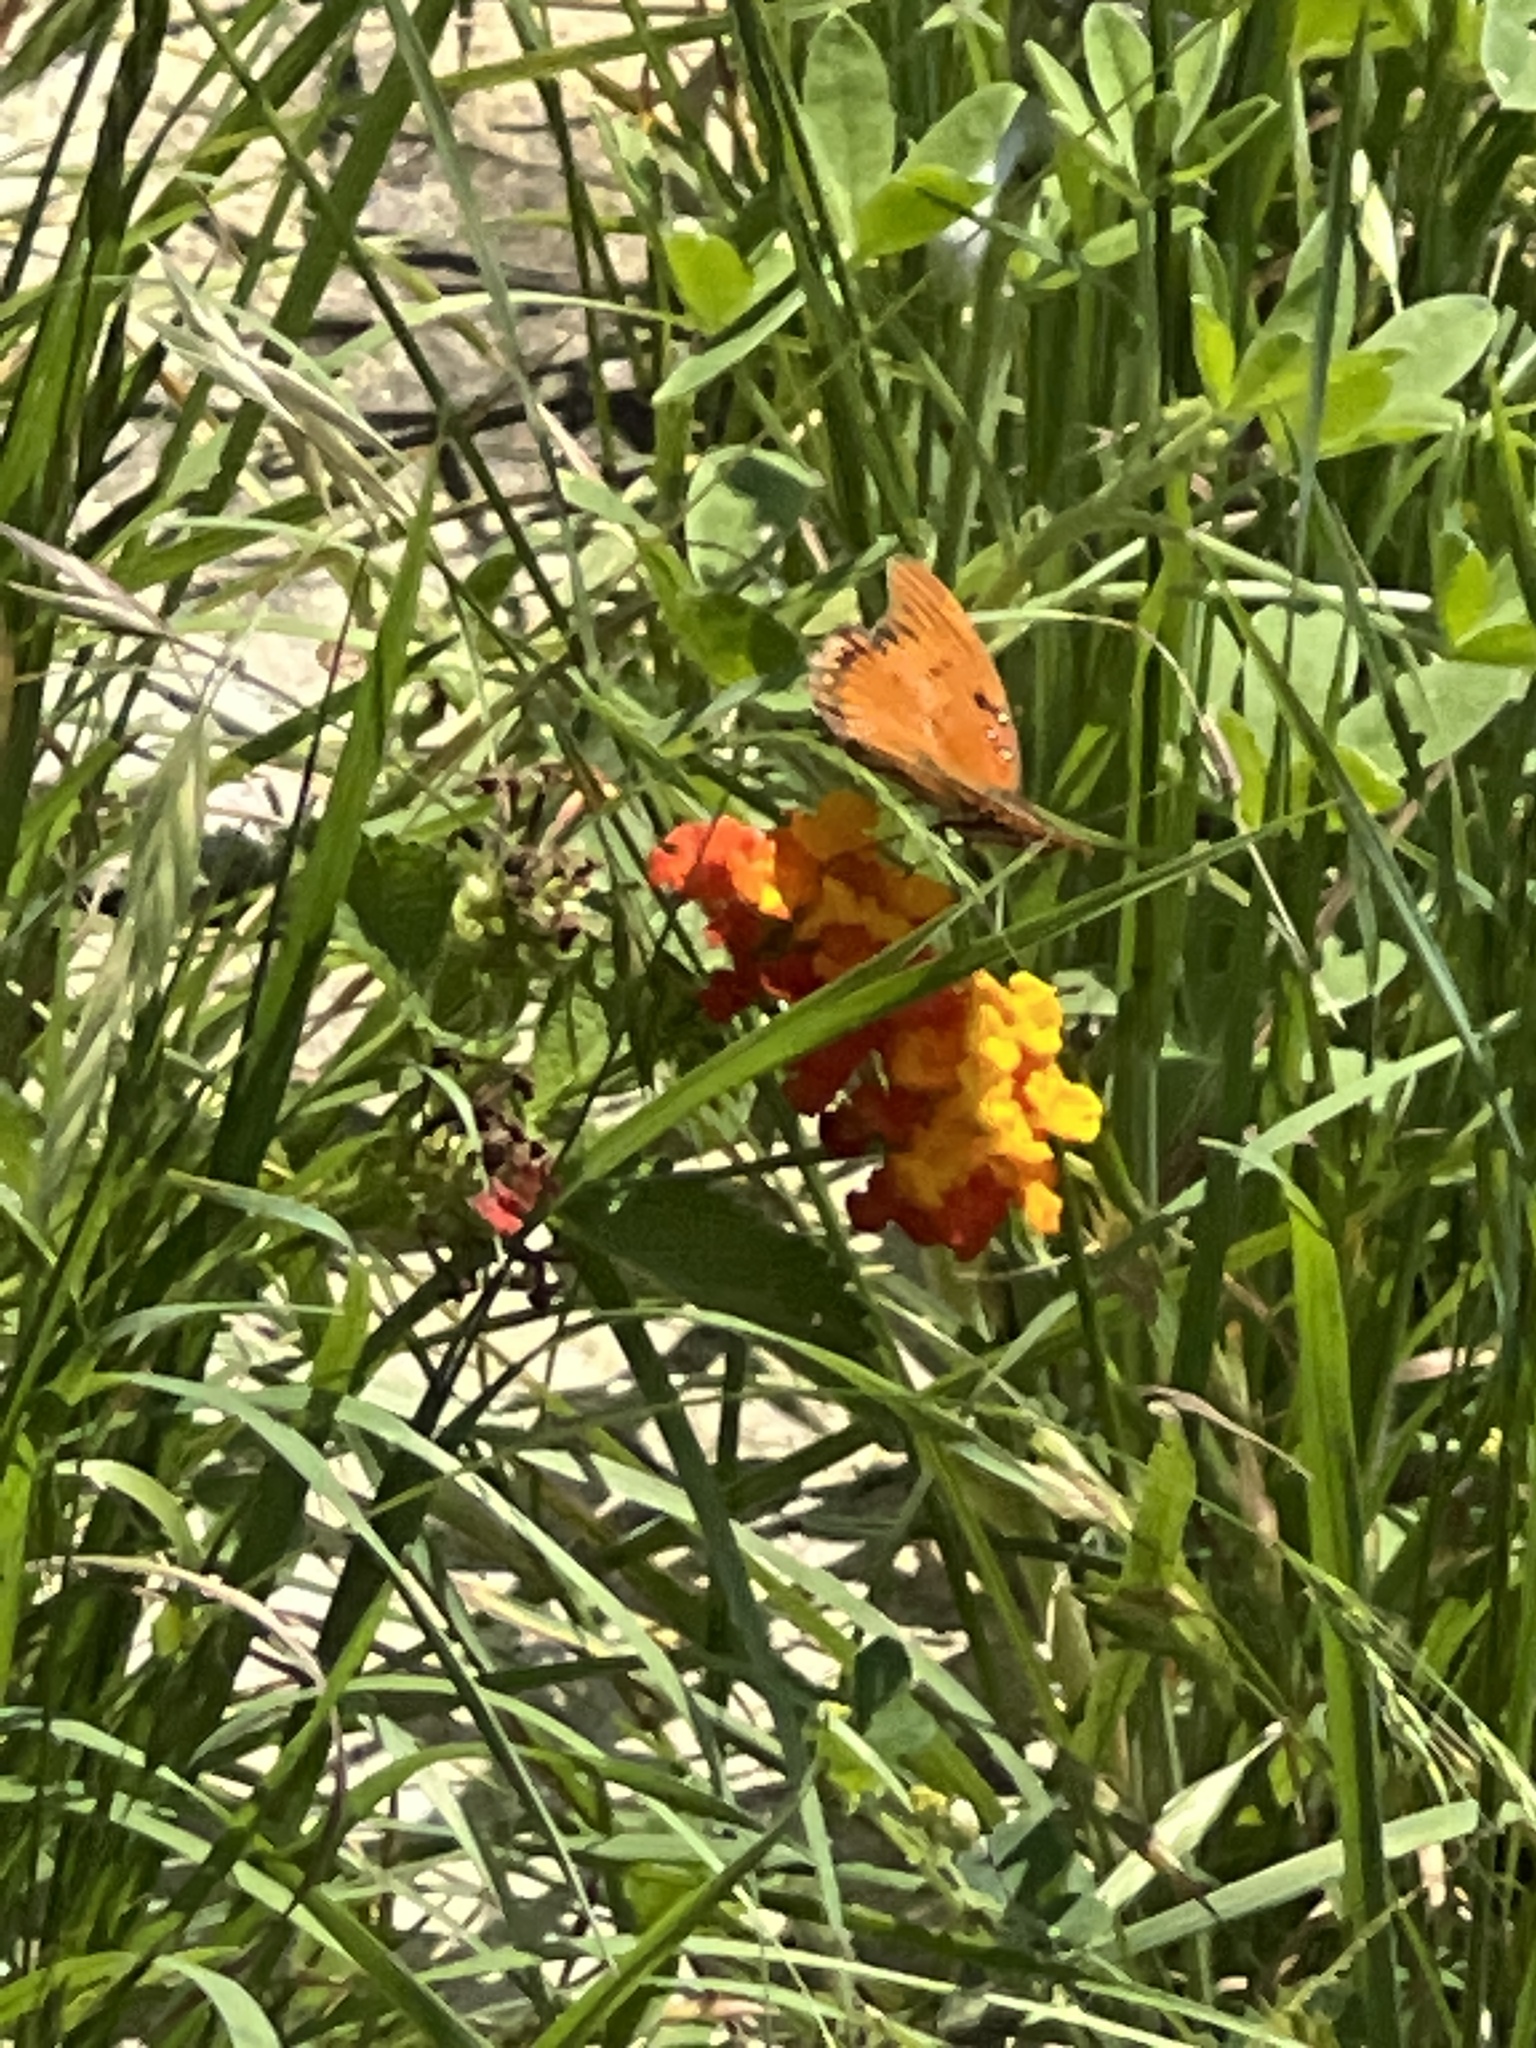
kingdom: Animalia
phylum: Arthropoda
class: Insecta
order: Lepidoptera
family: Nymphalidae
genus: Dione
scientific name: Dione vanillae
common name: Gulf fritillary
